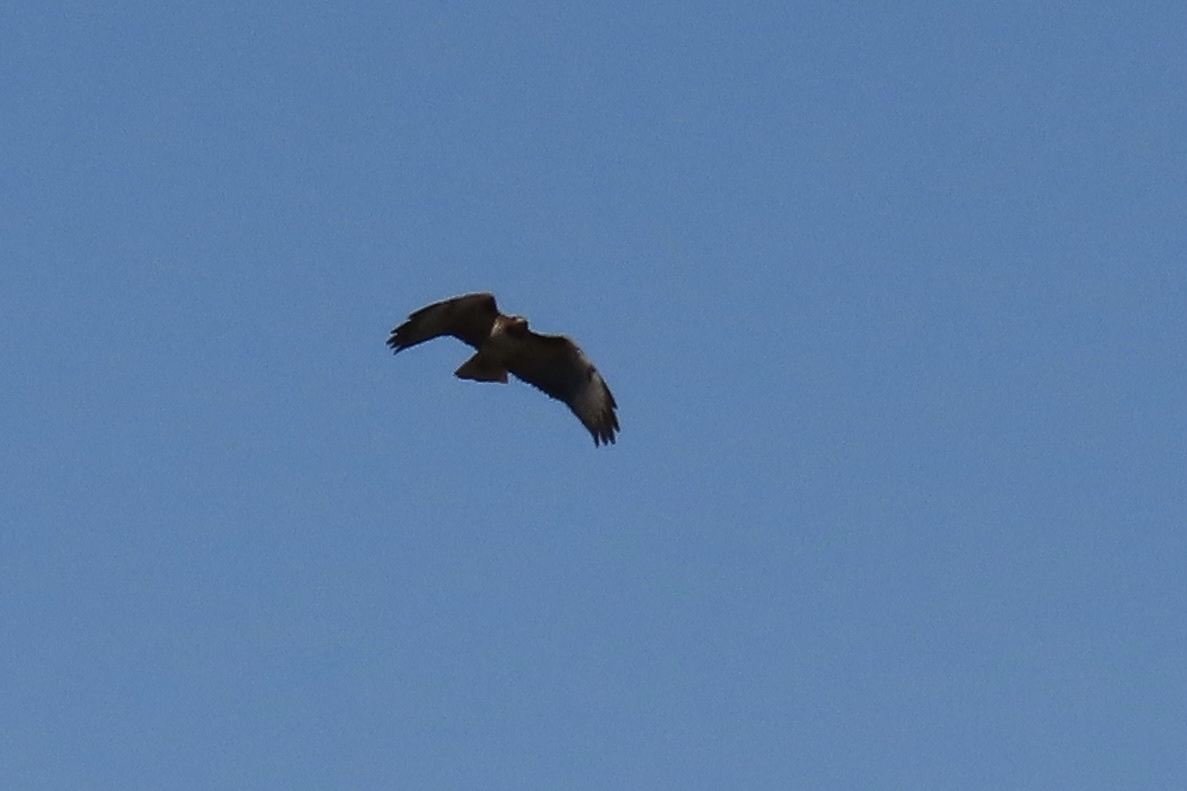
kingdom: Animalia
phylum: Chordata
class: Aves
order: Accipitriformes
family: Accipitridae
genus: Buteo
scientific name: Buteo jamaicensis
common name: Red-tailed hawk
